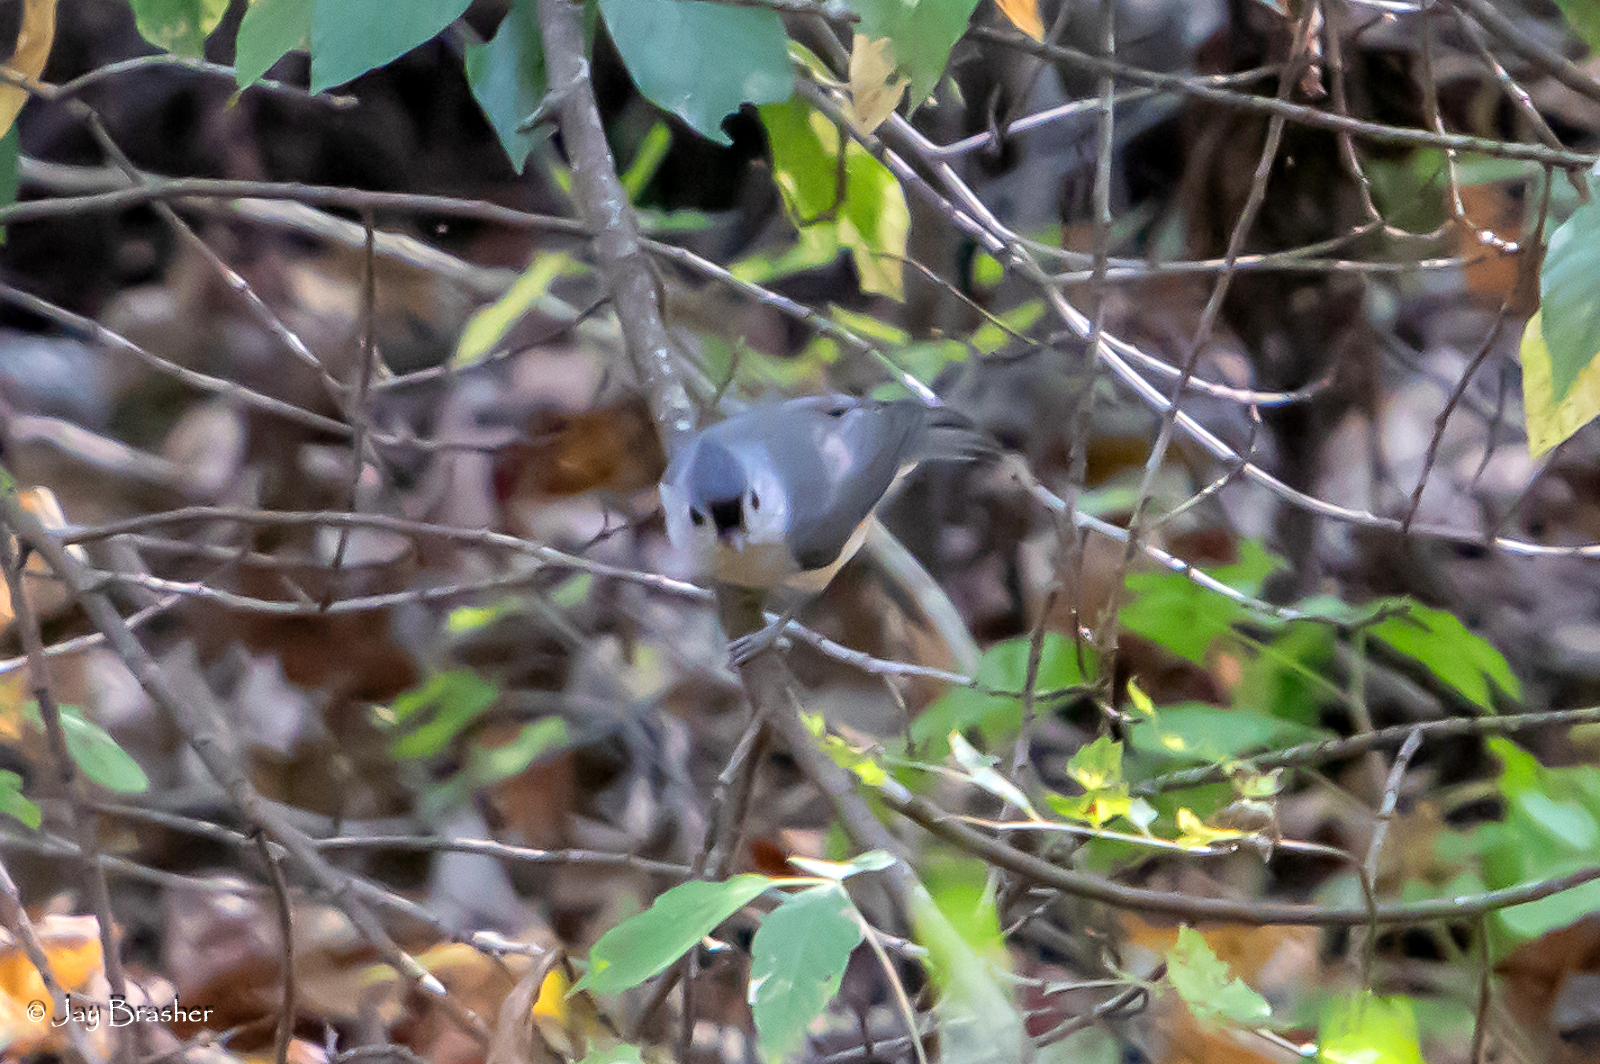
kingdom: Animalia
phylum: Chordata
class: Aves
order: Passeriformes
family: Paridae
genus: Baeolophus
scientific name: Baeolophus bicolor
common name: Tufted titmouse
